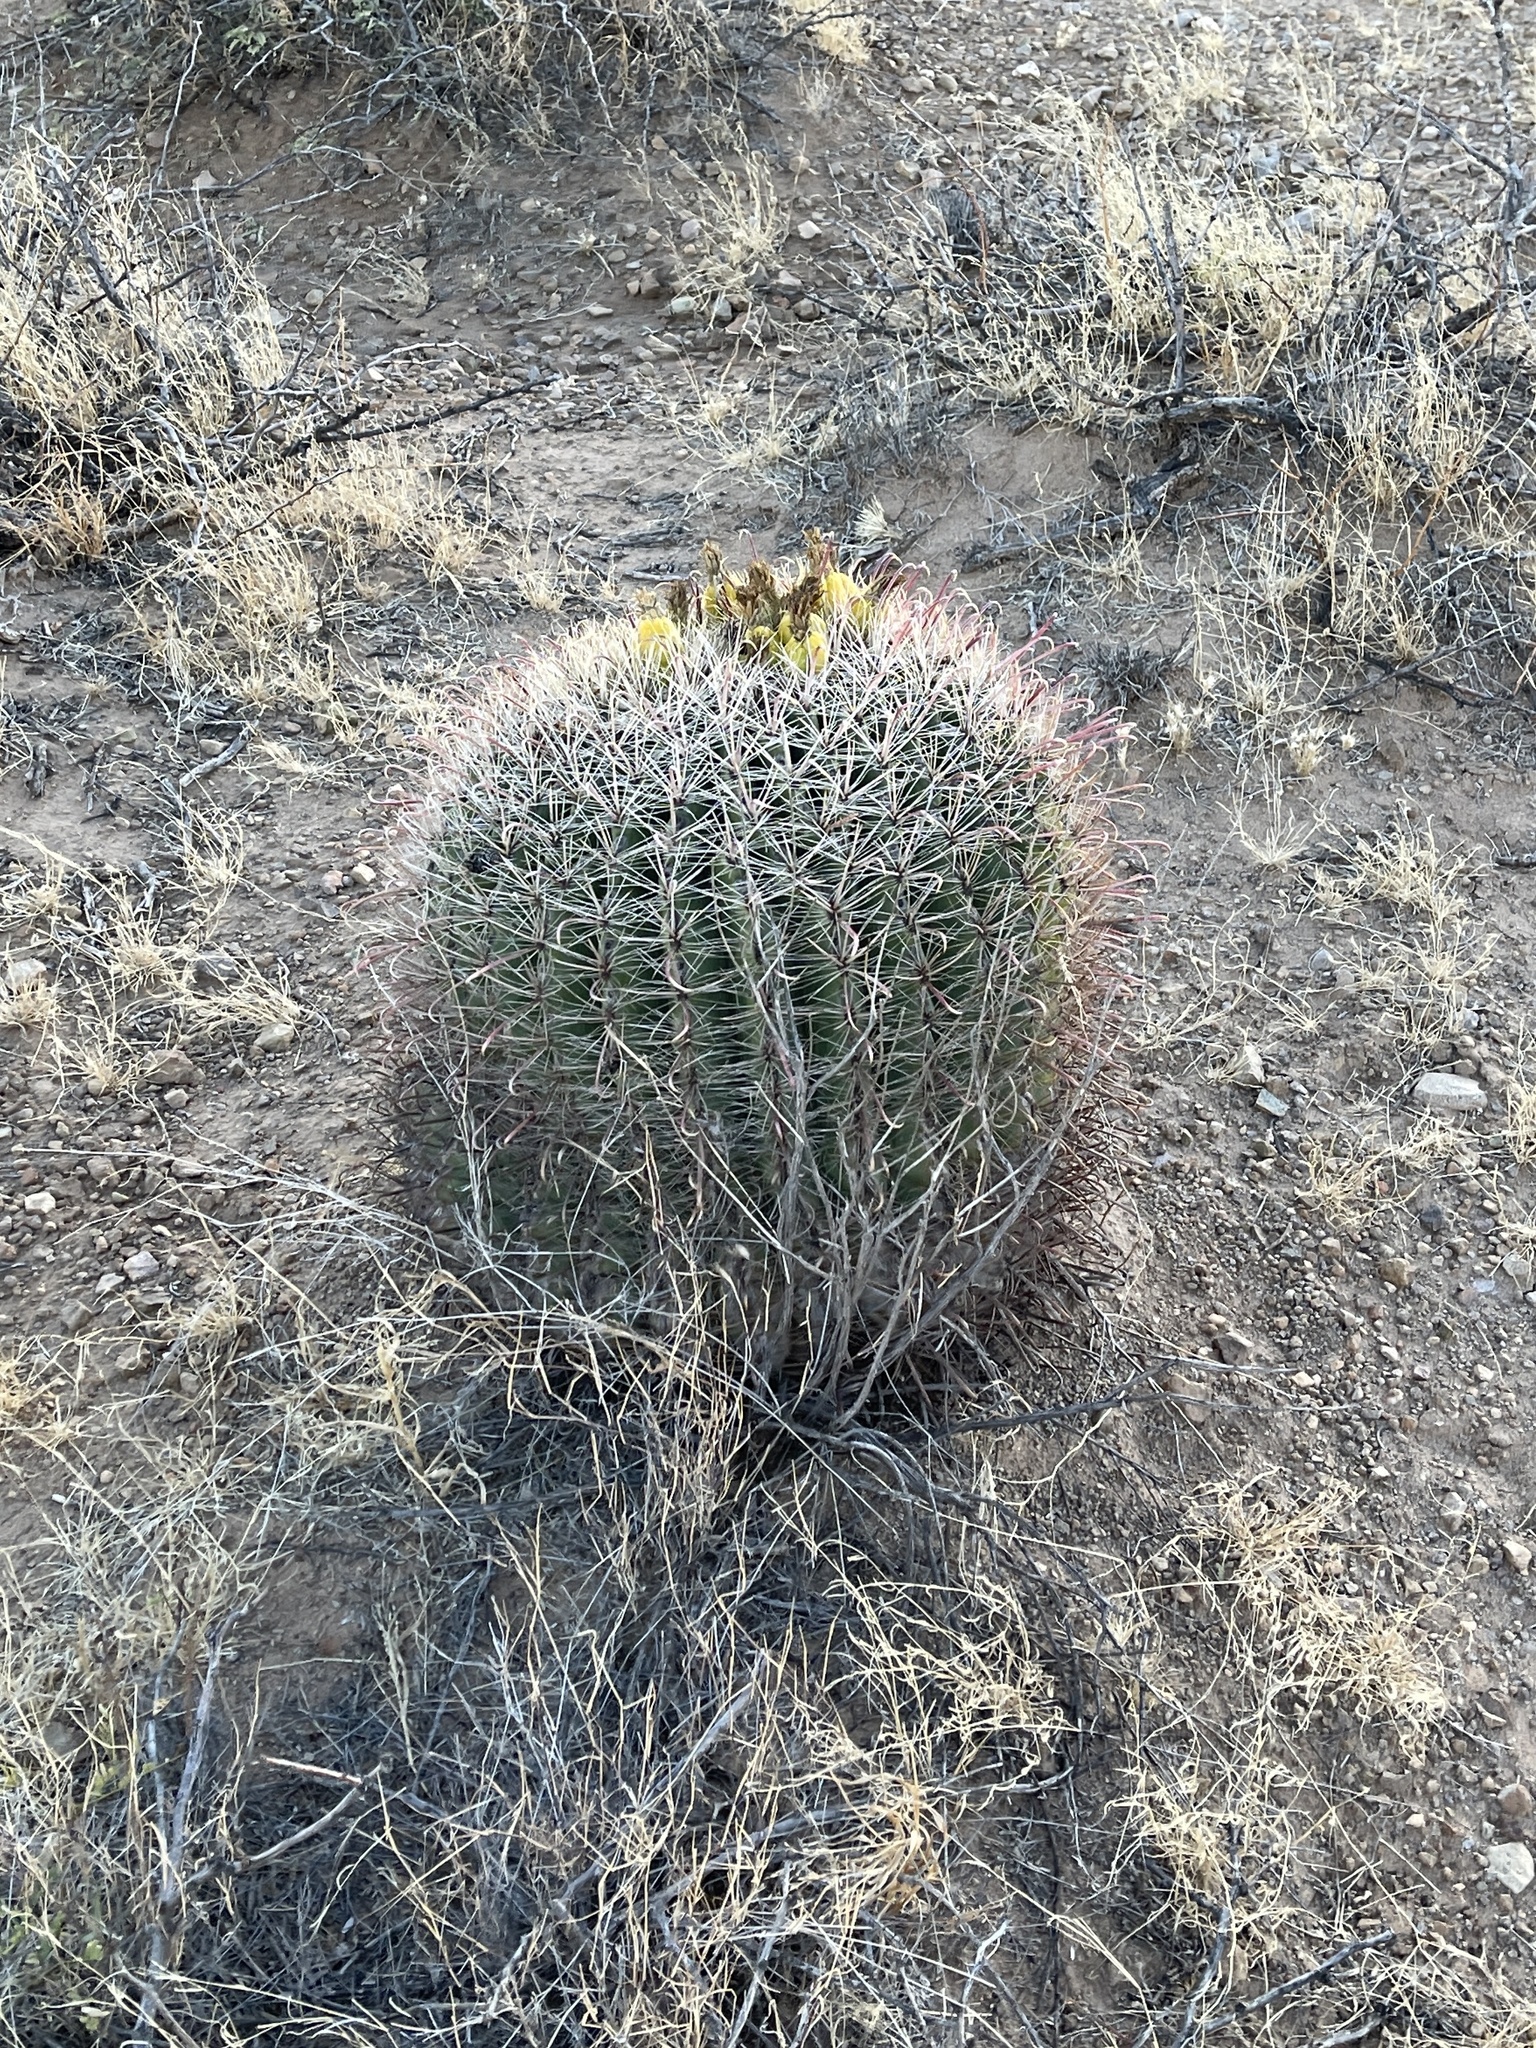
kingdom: Plantae
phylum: Tracheophyta
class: Magnoliopsida
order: Caryophyllales
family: Cactaceae
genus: Ferocactus
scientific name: Ferocactus wislizeni
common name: Candy barrel cactus
